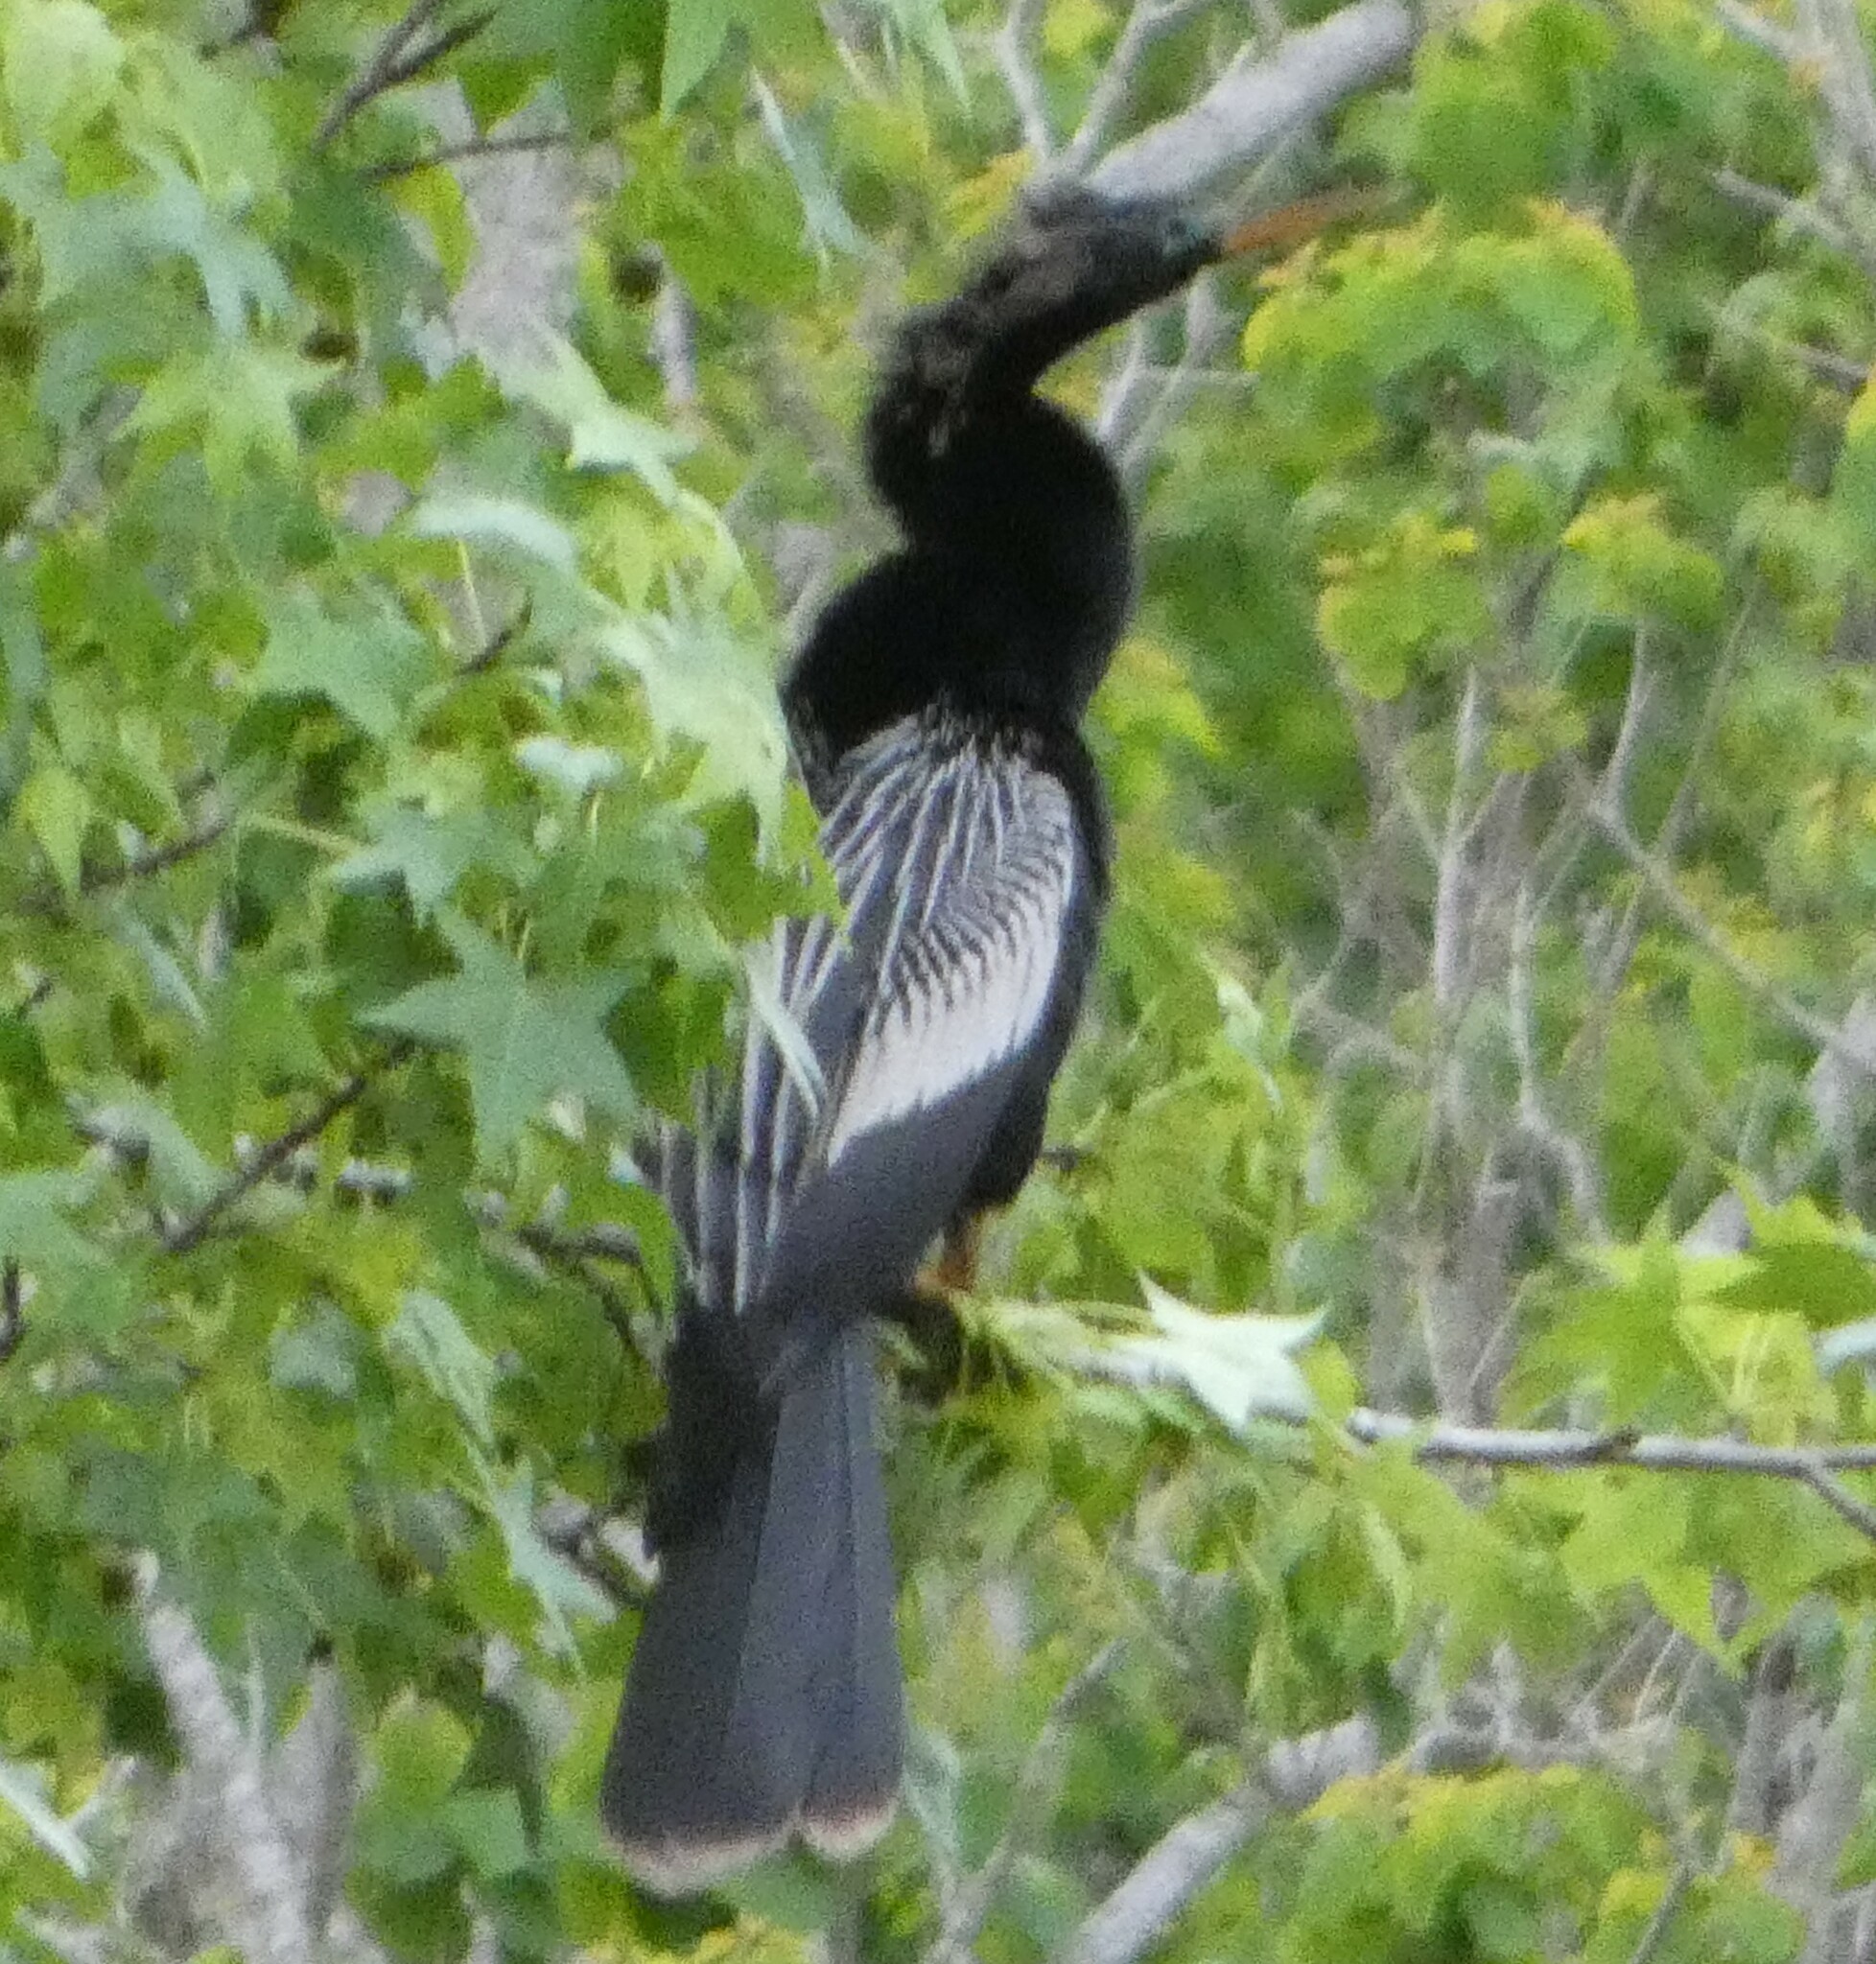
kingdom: Animalia
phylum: Chordata
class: Aves
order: Suliformes
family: Anhingidae
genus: Anhinga
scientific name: Anhinga anhinga
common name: Anhinga
